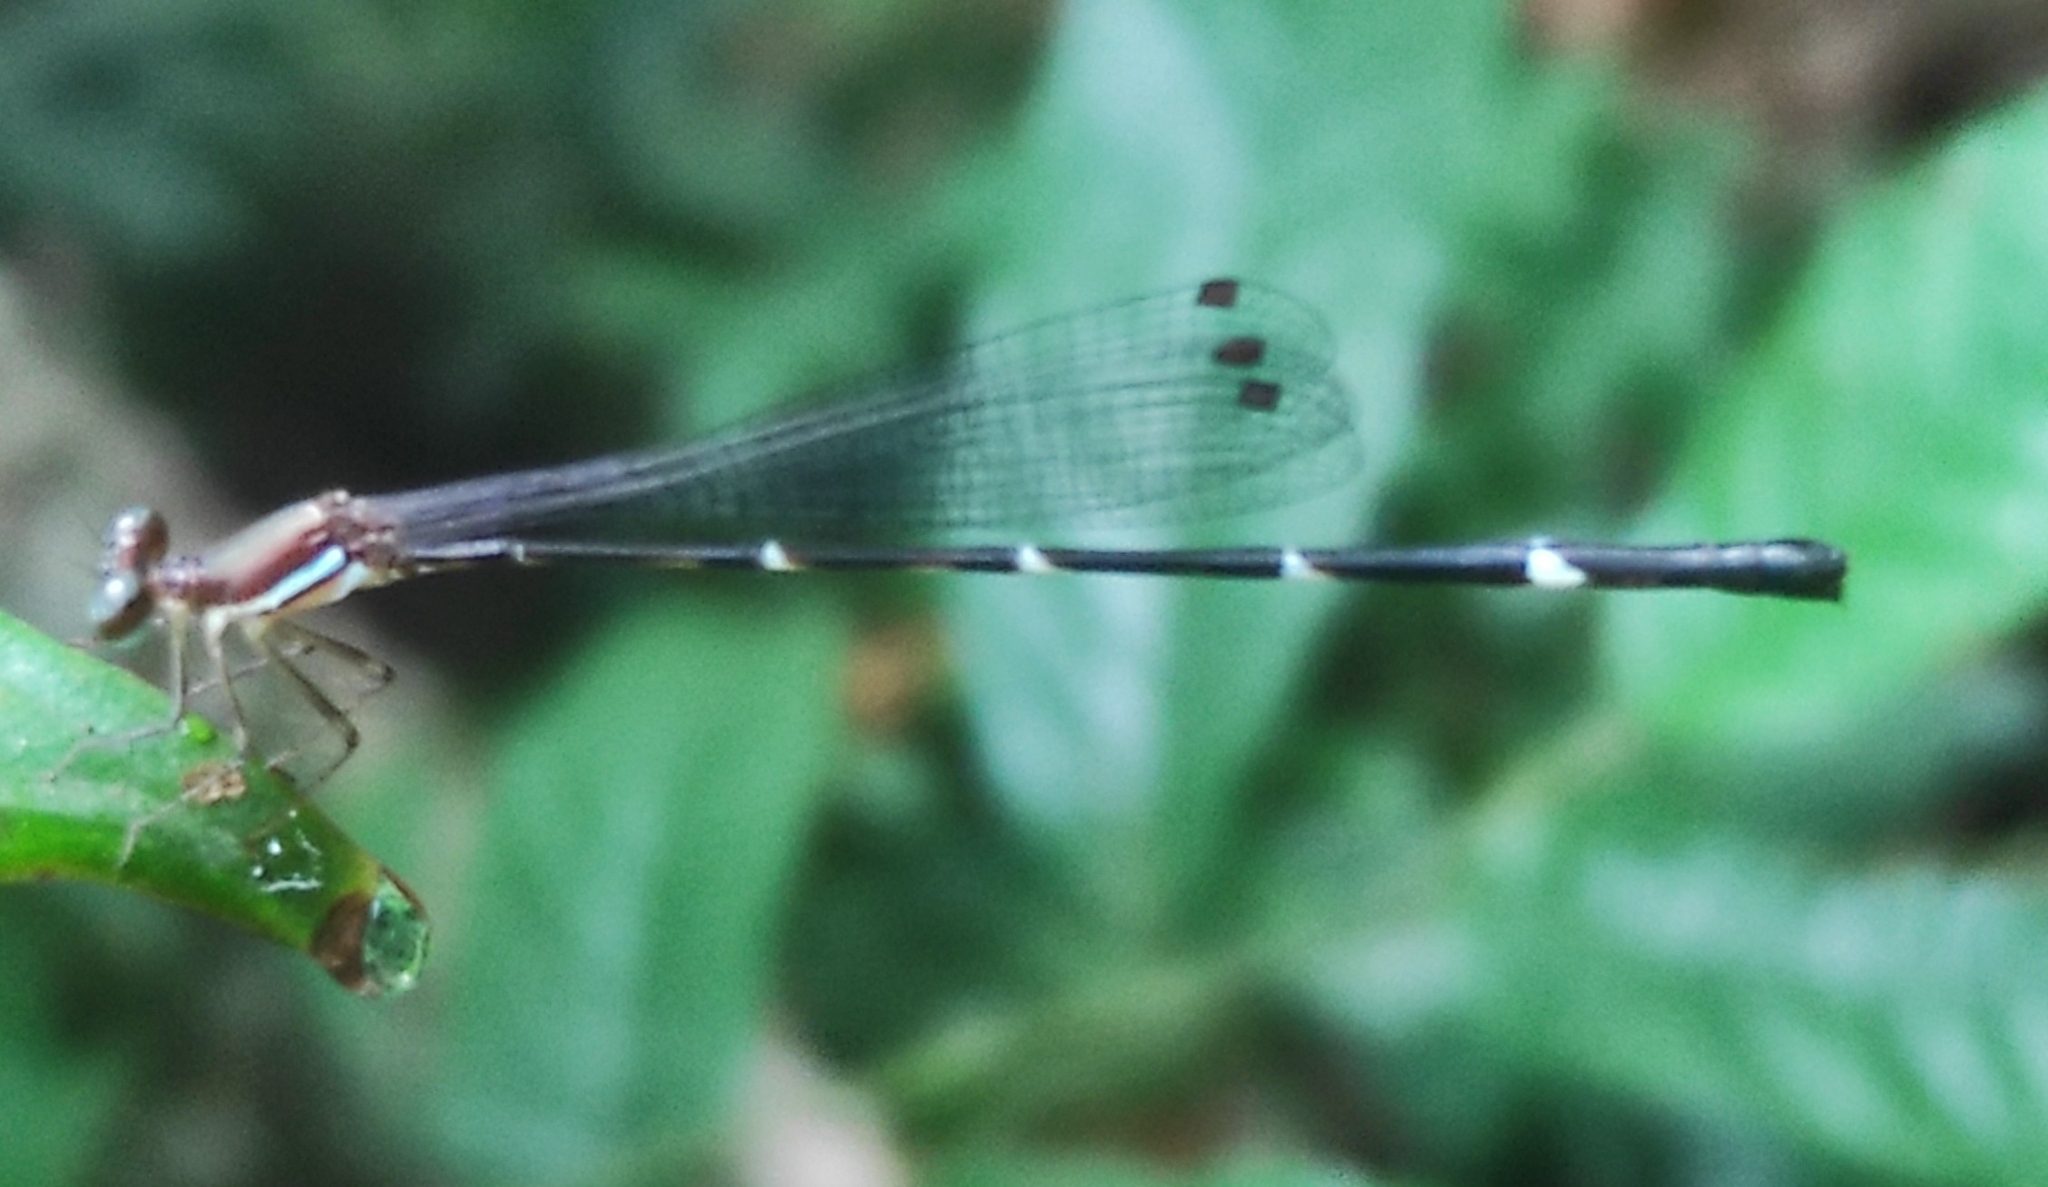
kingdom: Animalia
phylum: Arthropoda
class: Insecta
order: Odonata
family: Platystictidae
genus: Protosticta
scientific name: Protosticta sanguinostigma
